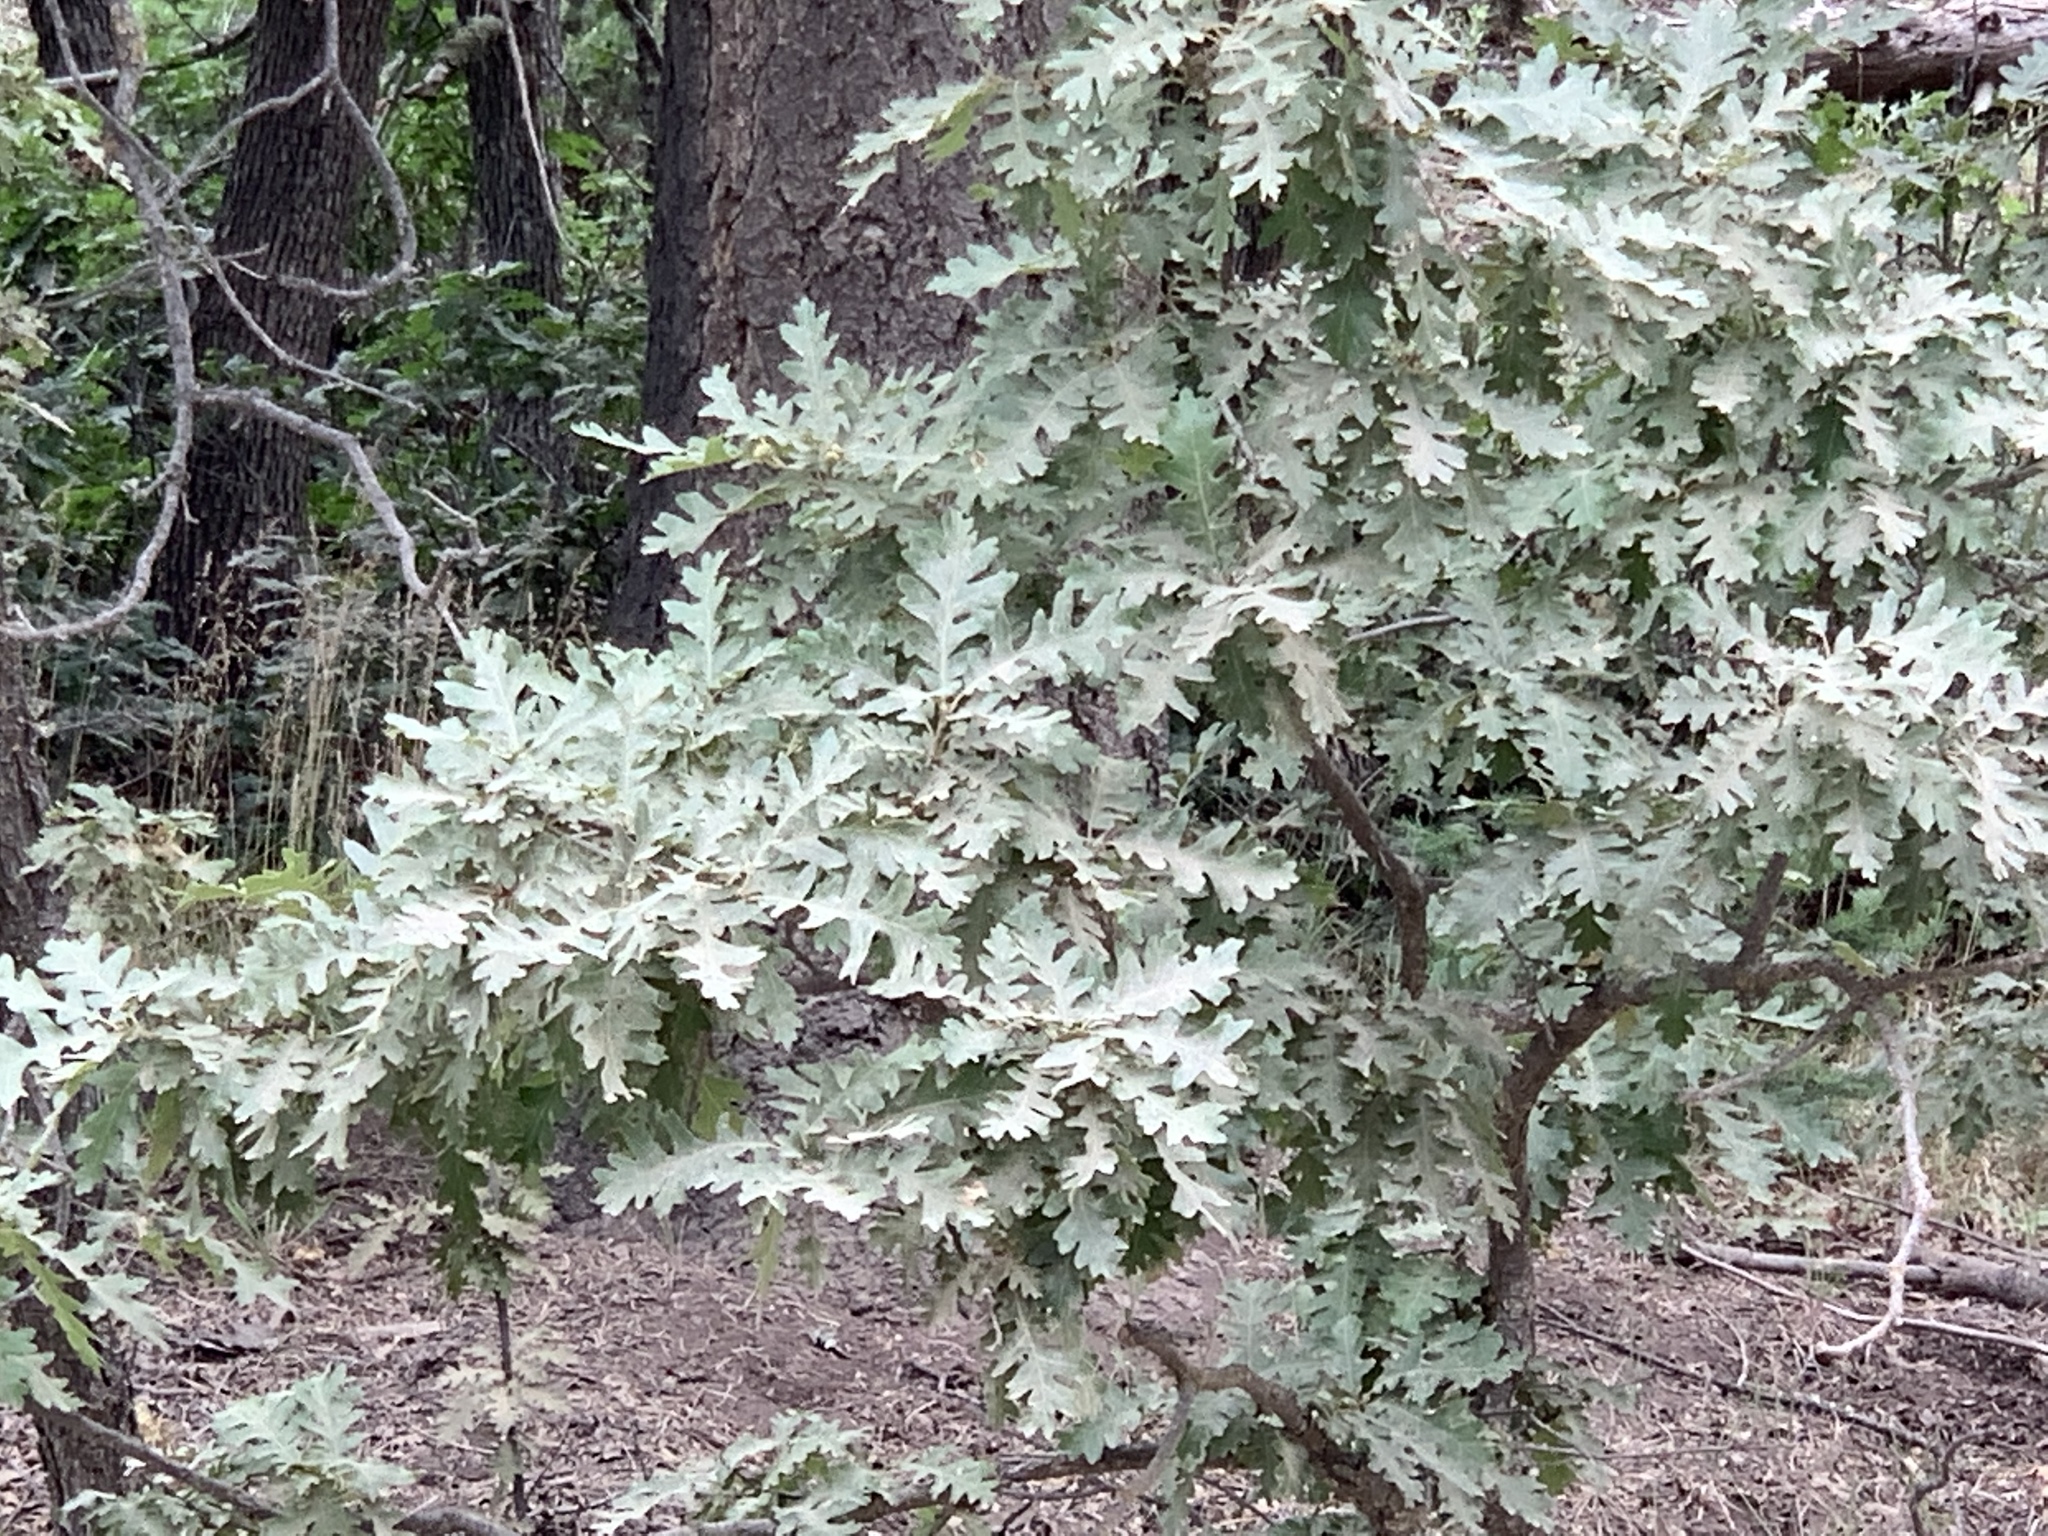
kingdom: Plantae
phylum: Tracheophyta
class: Magnoliopsida
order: Fagales
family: Fagaceae
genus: Quercus
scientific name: Quercus gambelii
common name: Gambel oak
